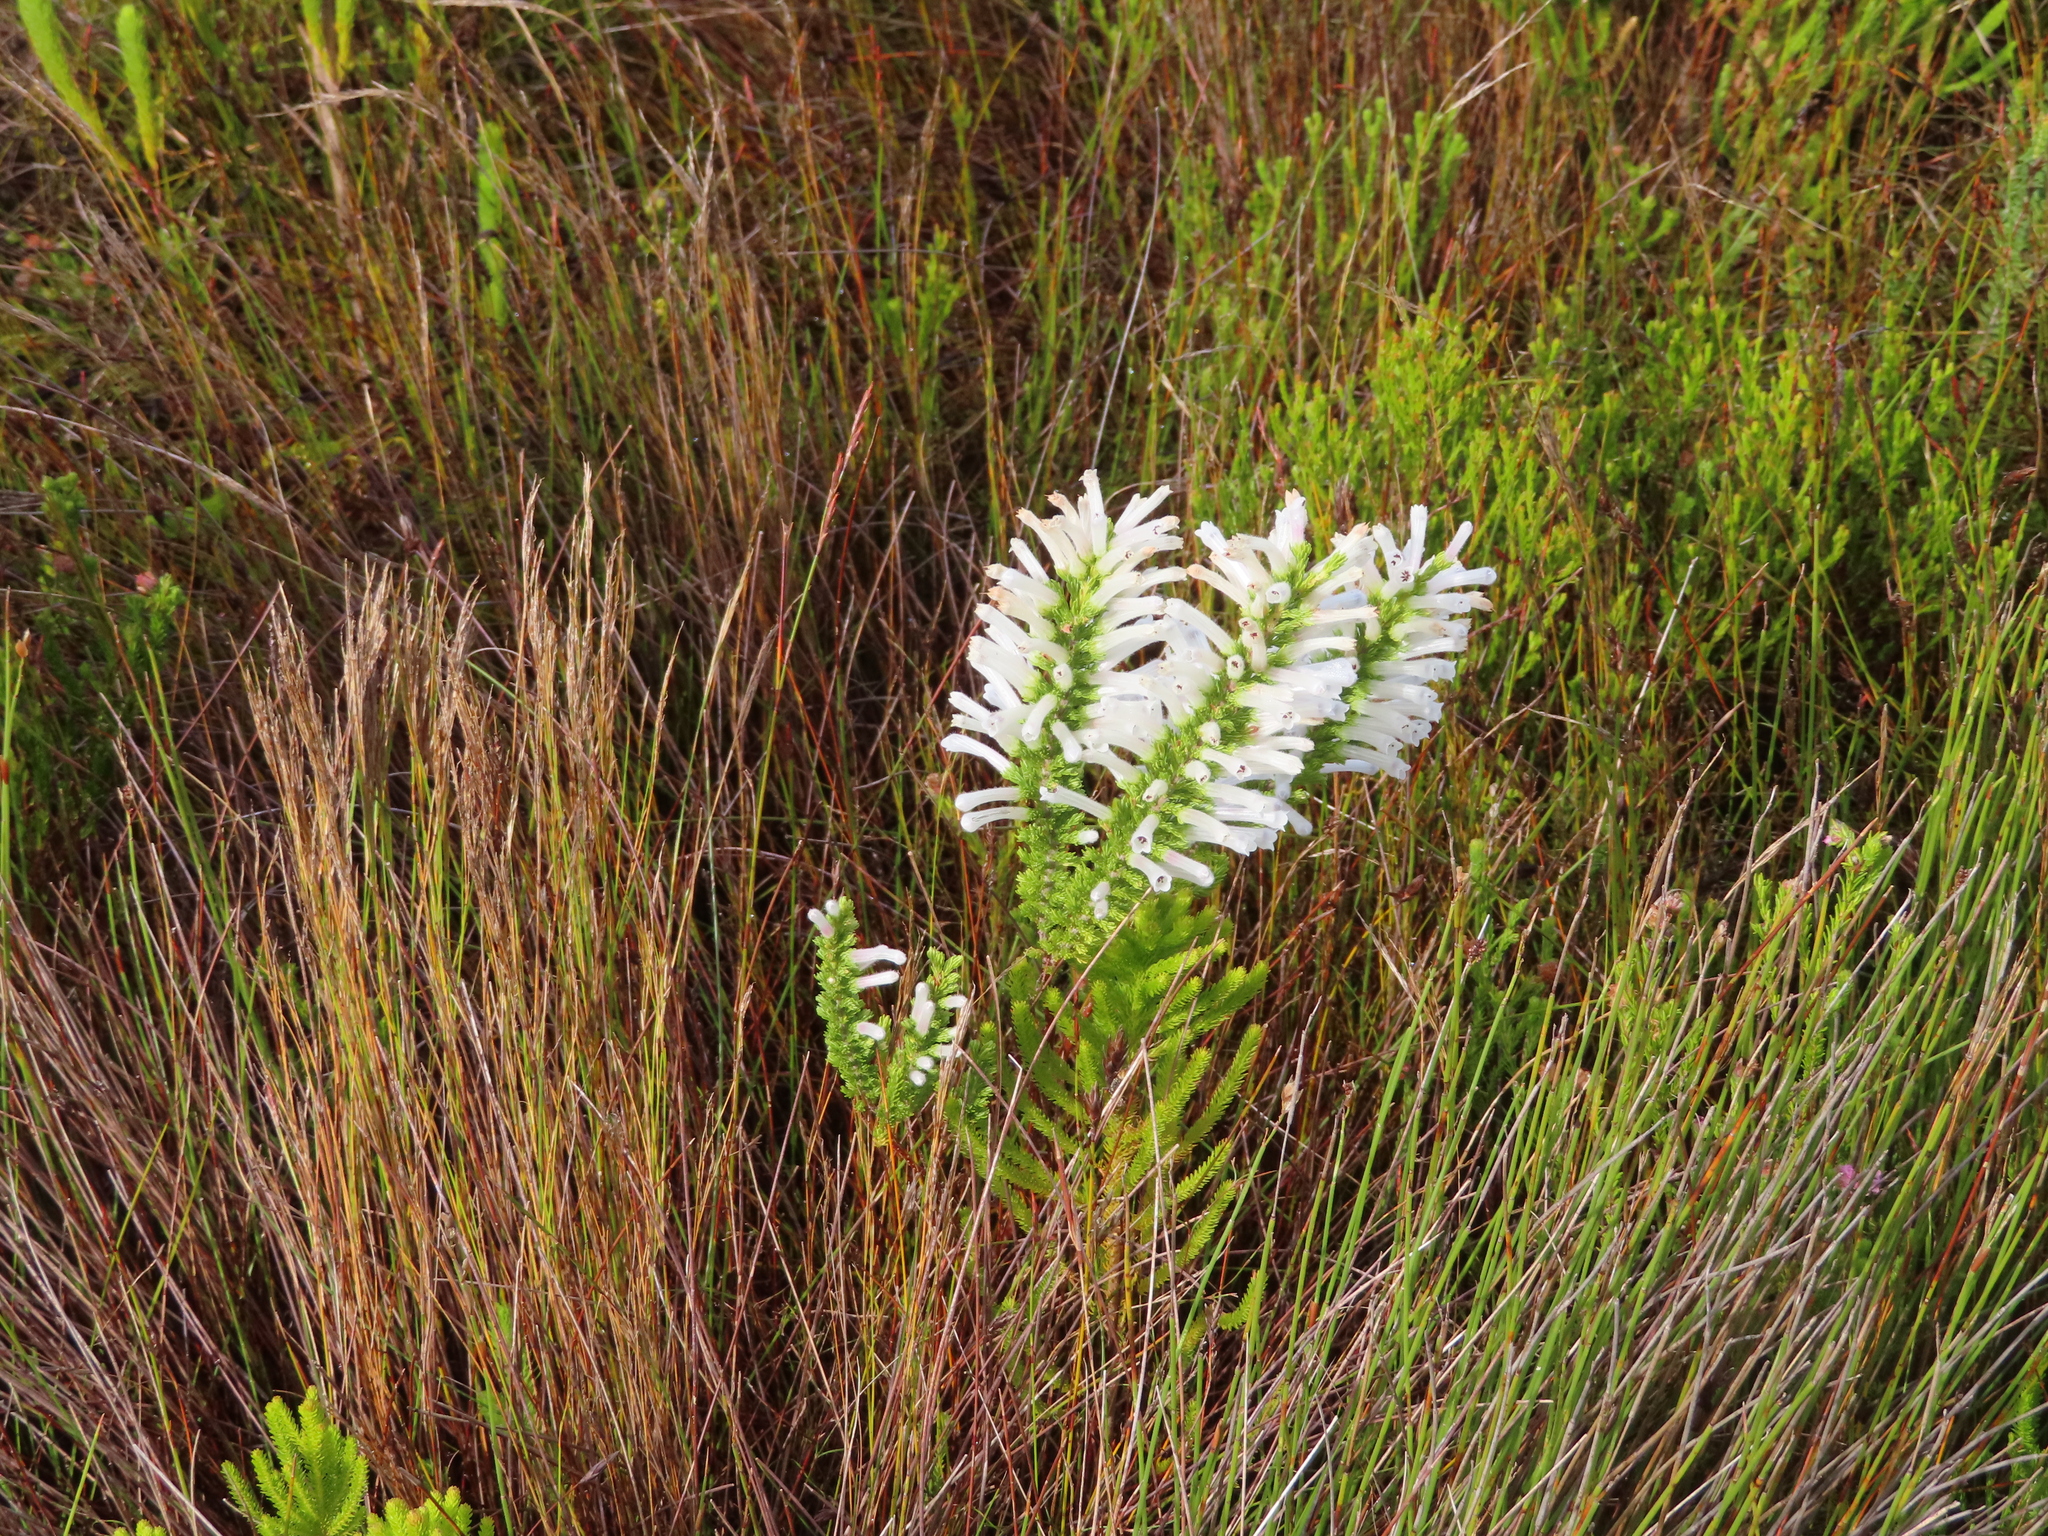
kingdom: Plantae
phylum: Tracheophyta
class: Magnoliopsida
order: Ericales
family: Ericaceae
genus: Erica
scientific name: Erica perspicua
